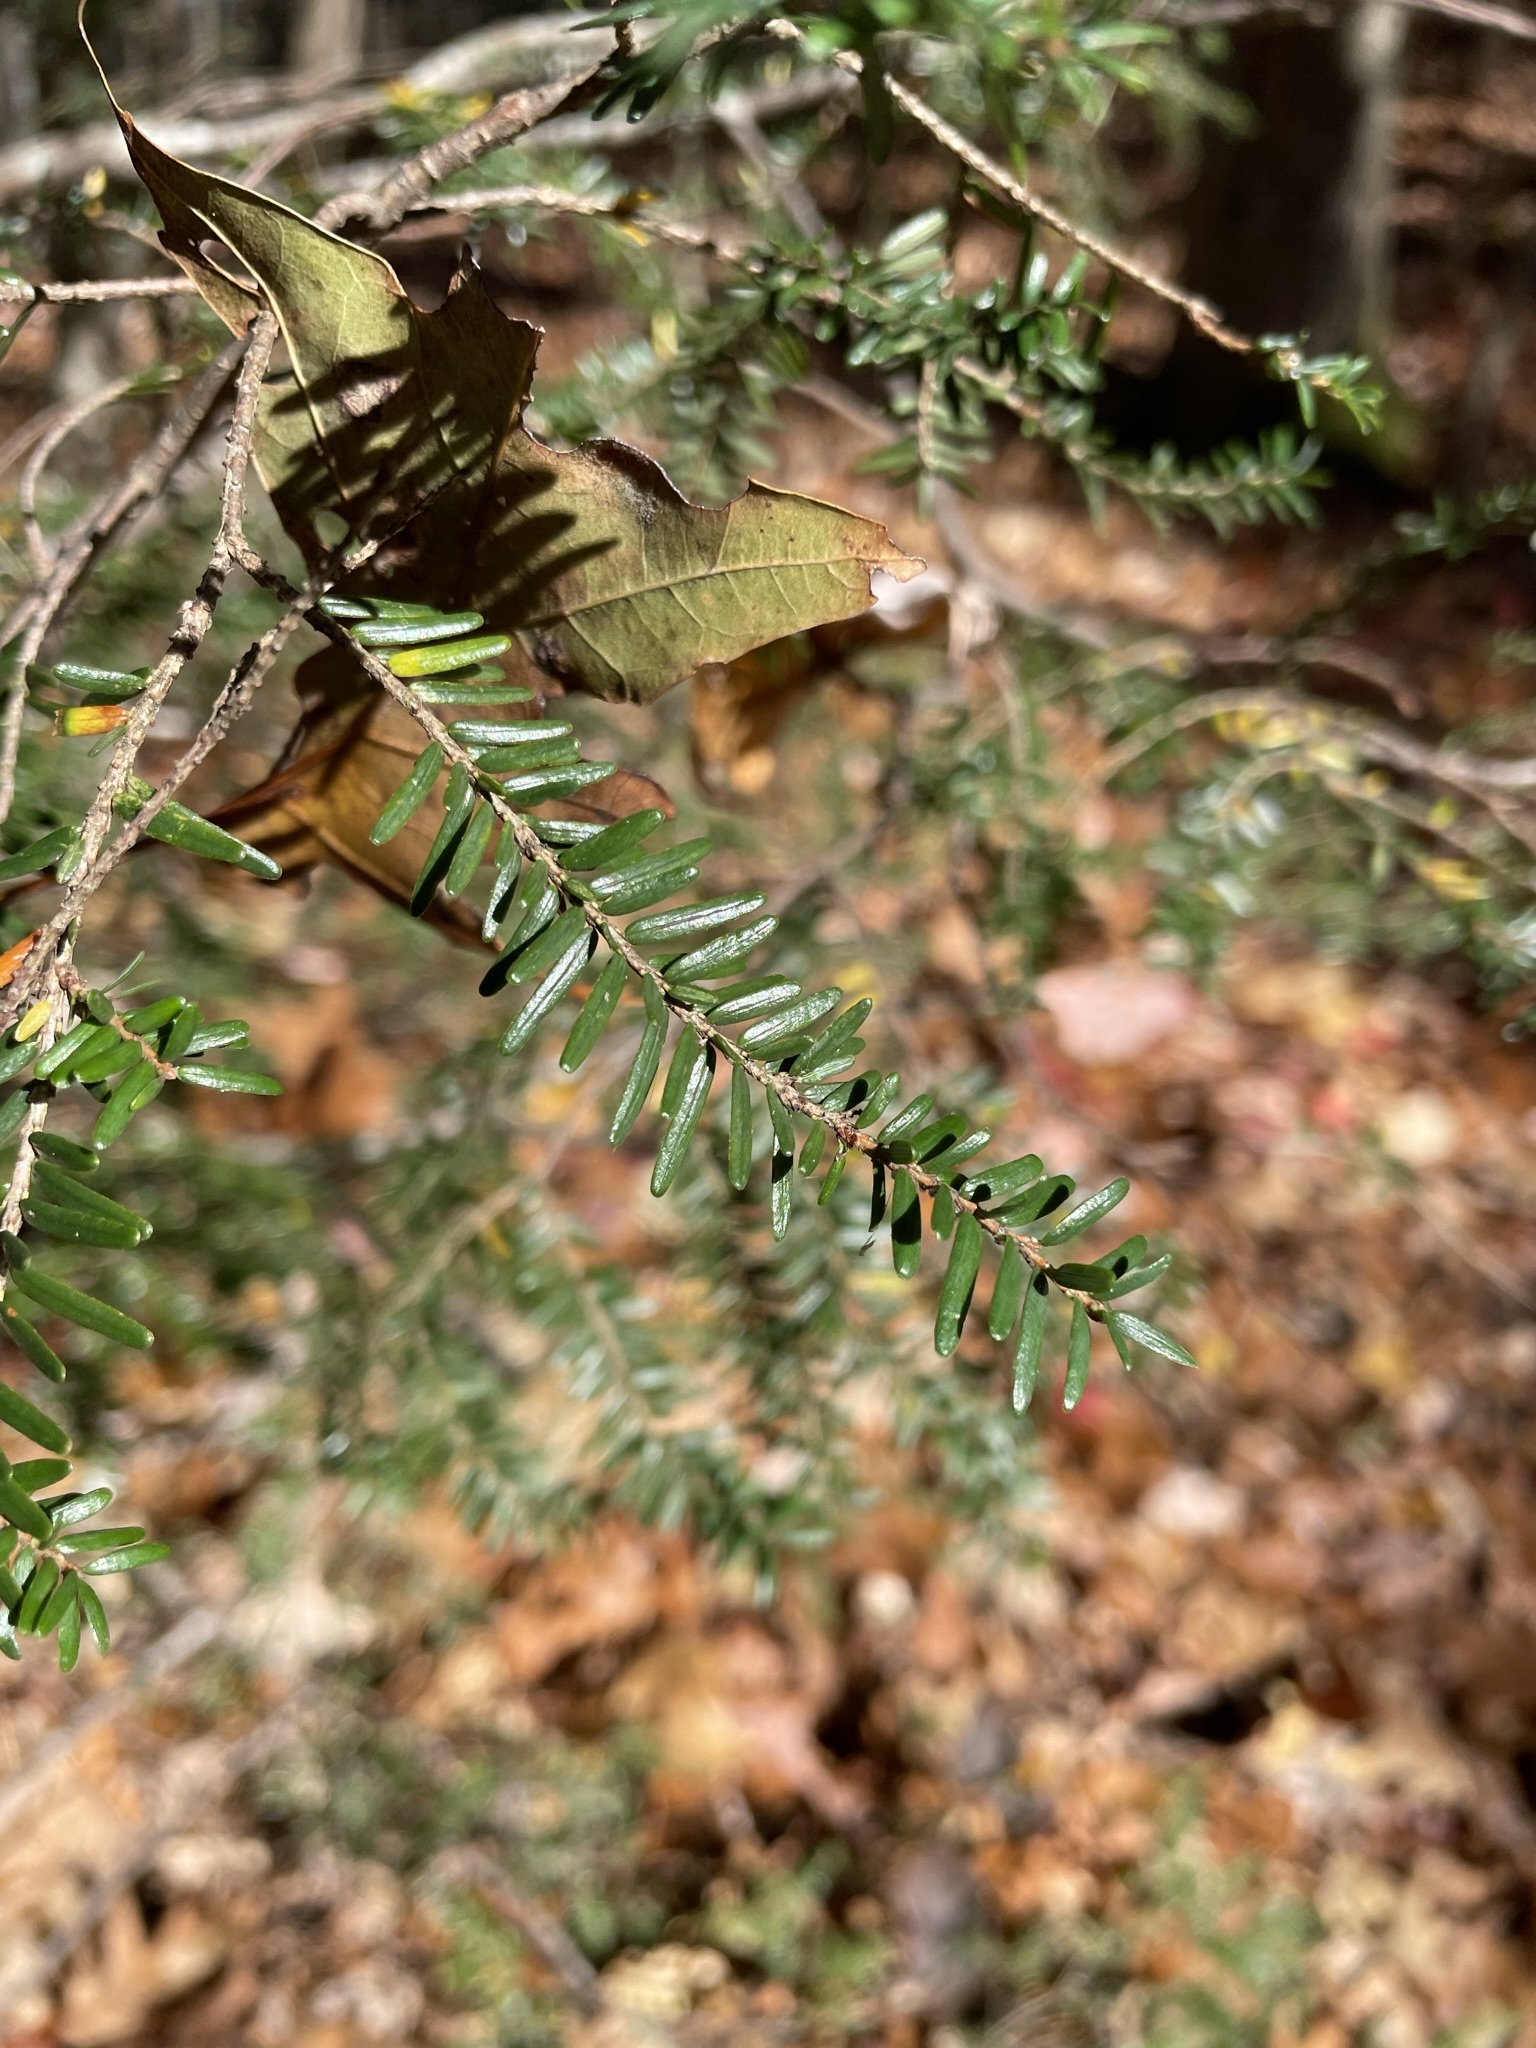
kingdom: Plantae
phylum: Tracheophyta
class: Pinopsida
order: Pinales
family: Pinaceae
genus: Tsuga
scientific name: Tsuga canadensis
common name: Eastern hemlock
